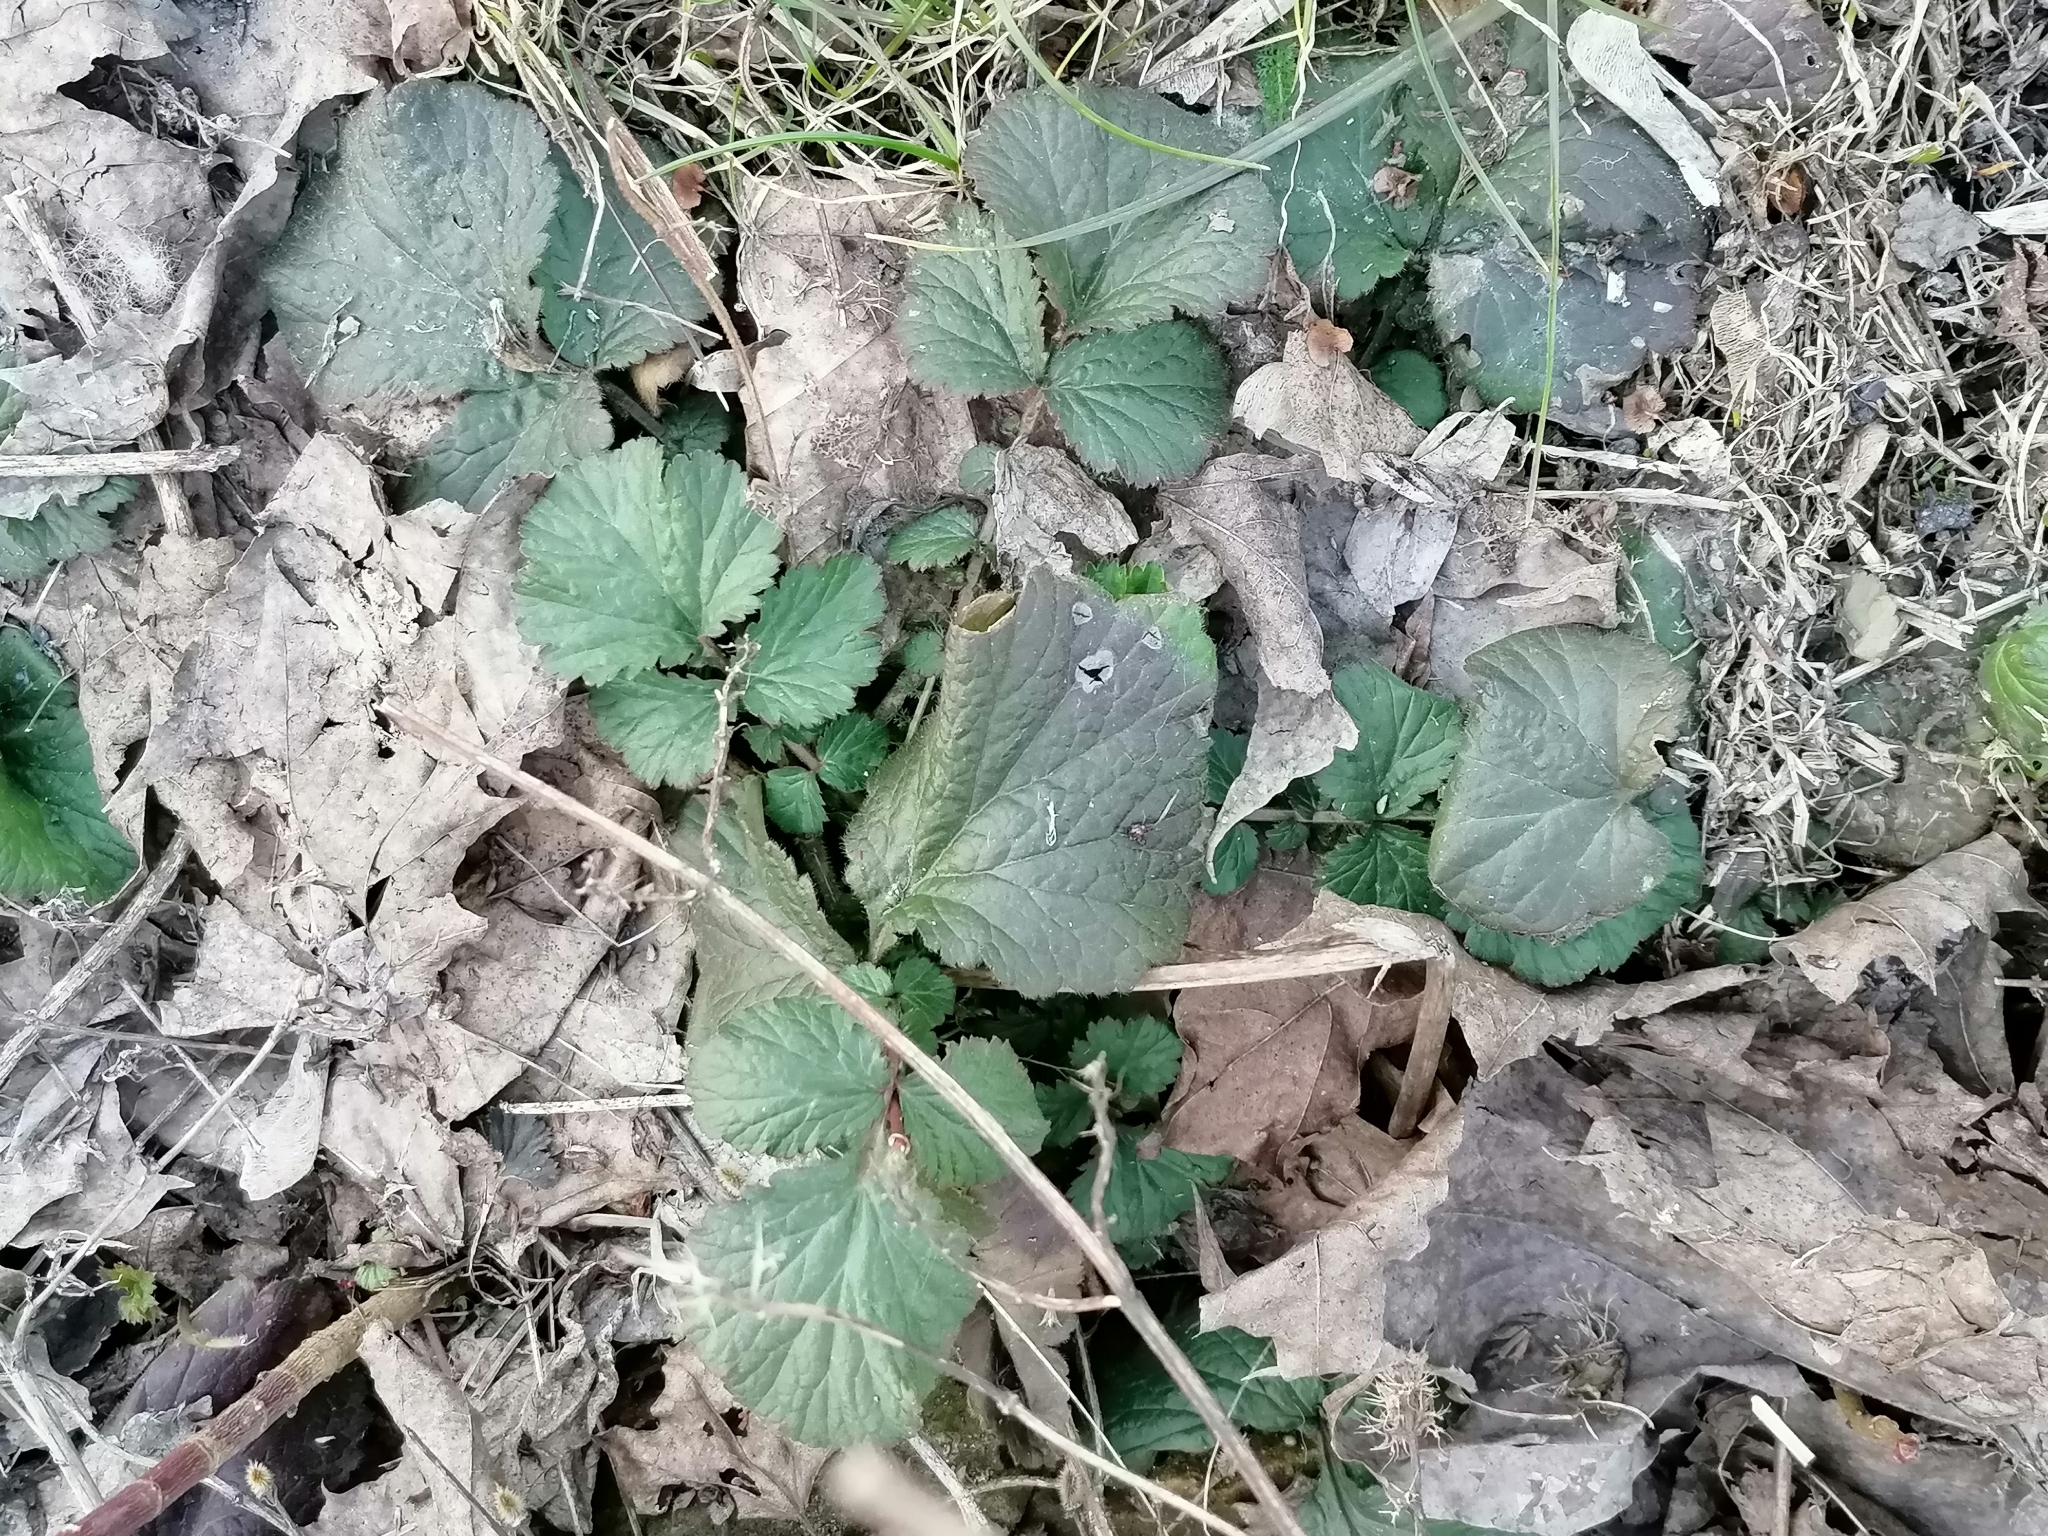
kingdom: Plantae
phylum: Tracheophyta
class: Magnoliopsida
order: Rosales
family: Rosaceae
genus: Geum
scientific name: Geum urbanum
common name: Wood avens
